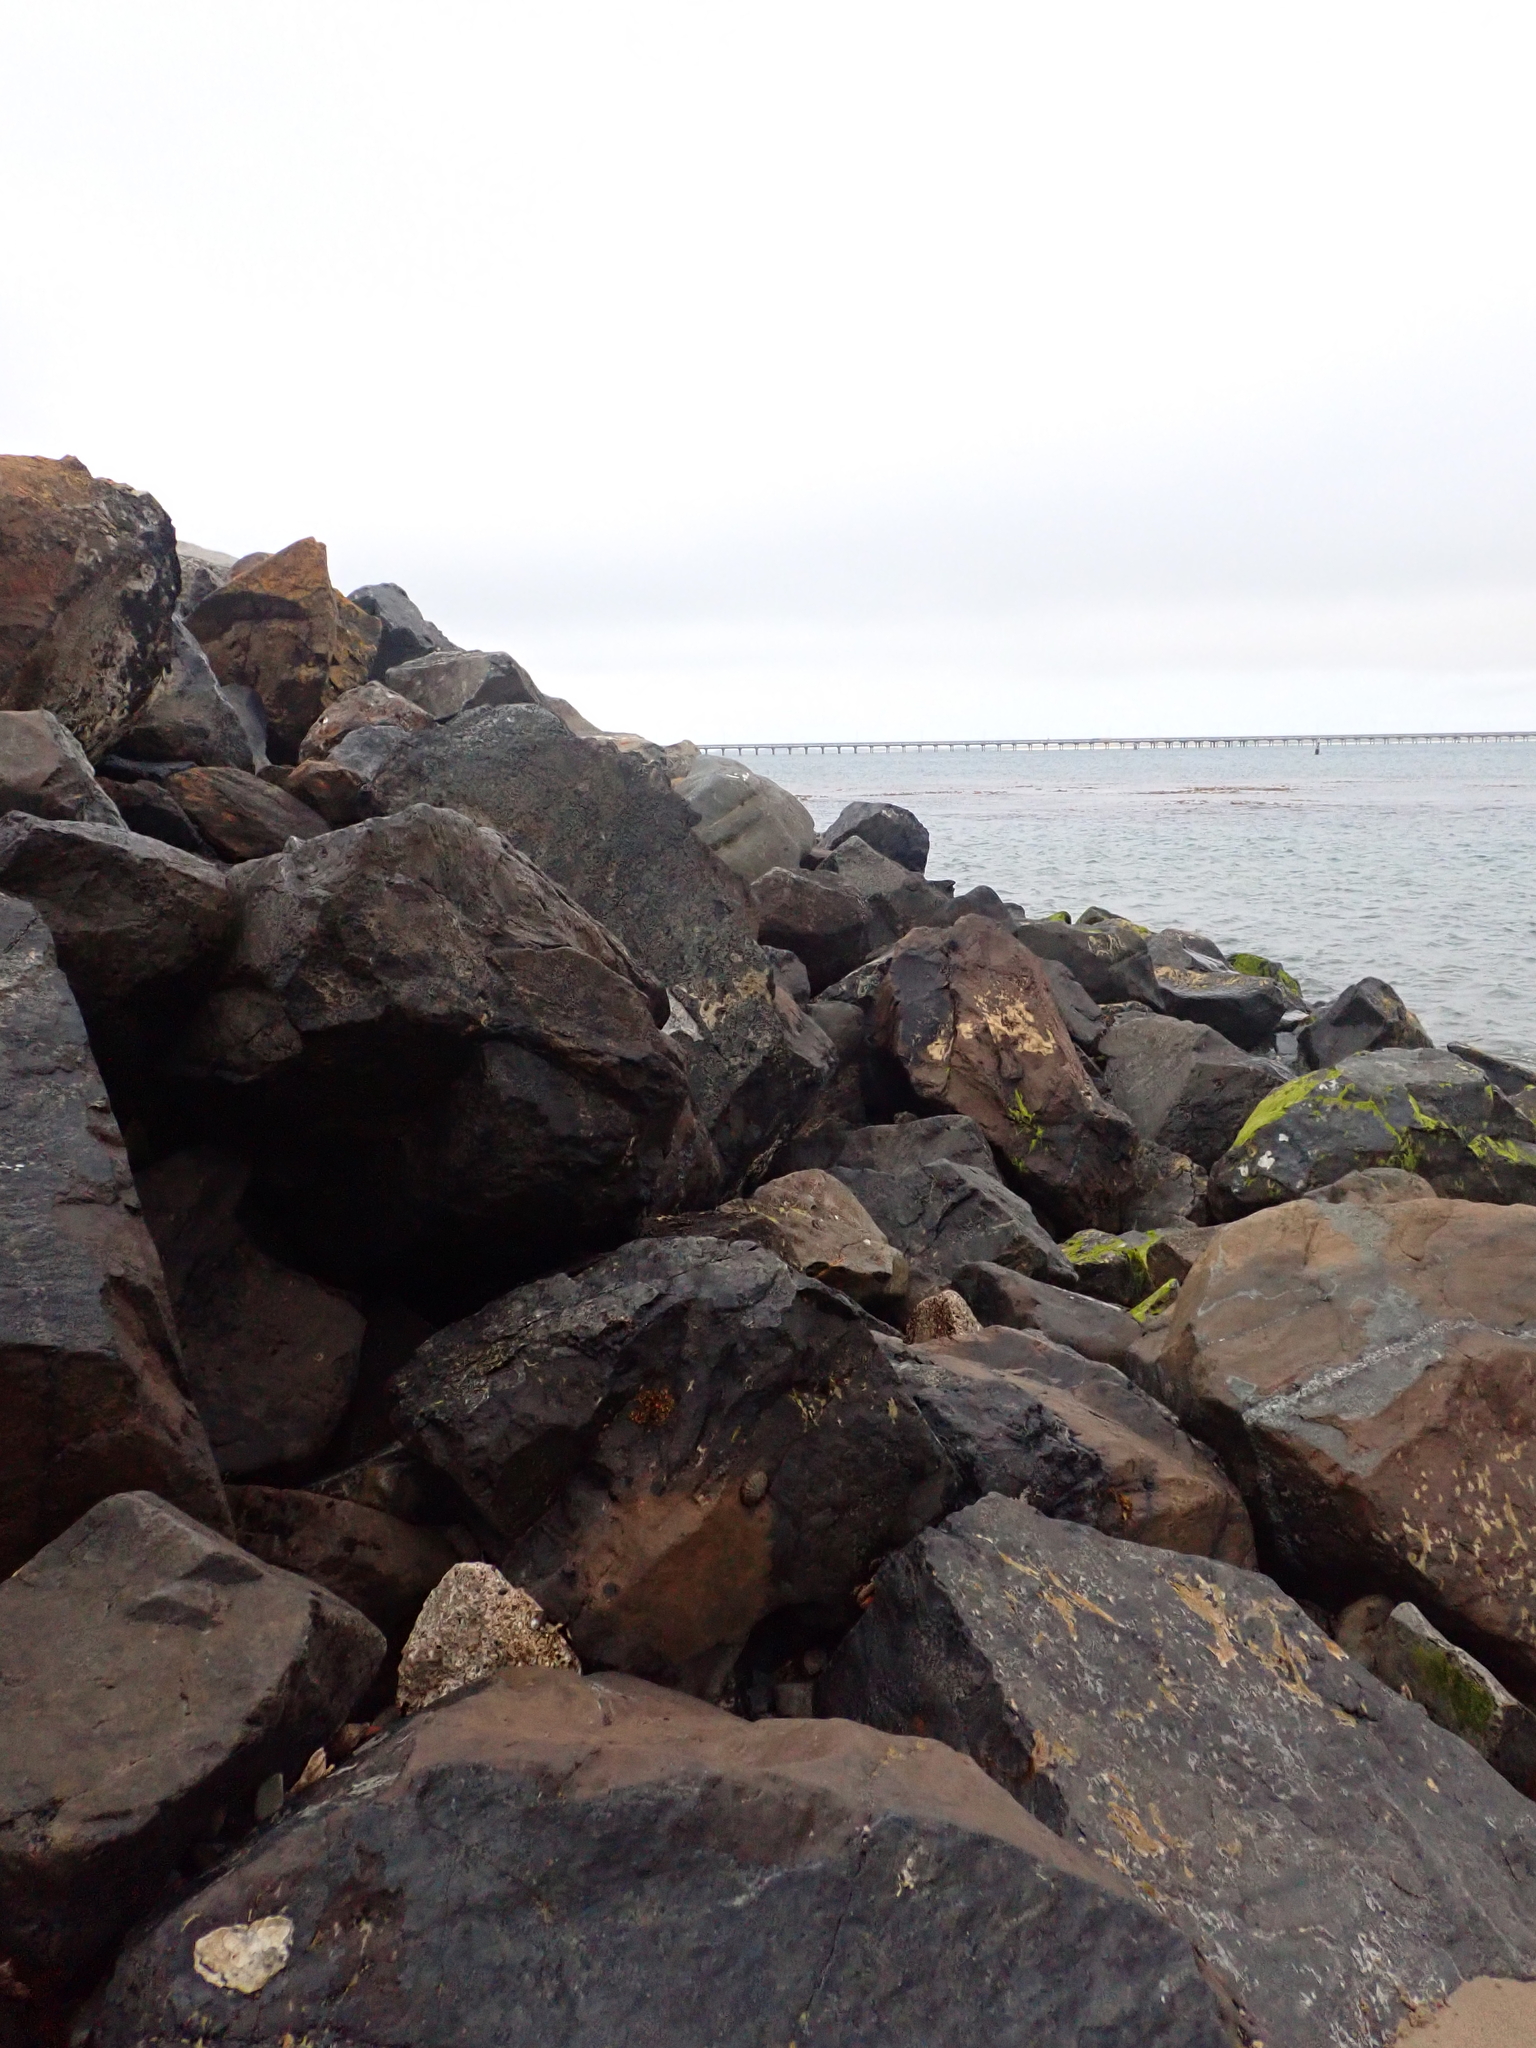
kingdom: Plantae
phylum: Rhodophyta
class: Florideophyceae
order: Ceramiales
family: Rhodomelaceae
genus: Bostrychia
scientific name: Bostrychia arbuscula
